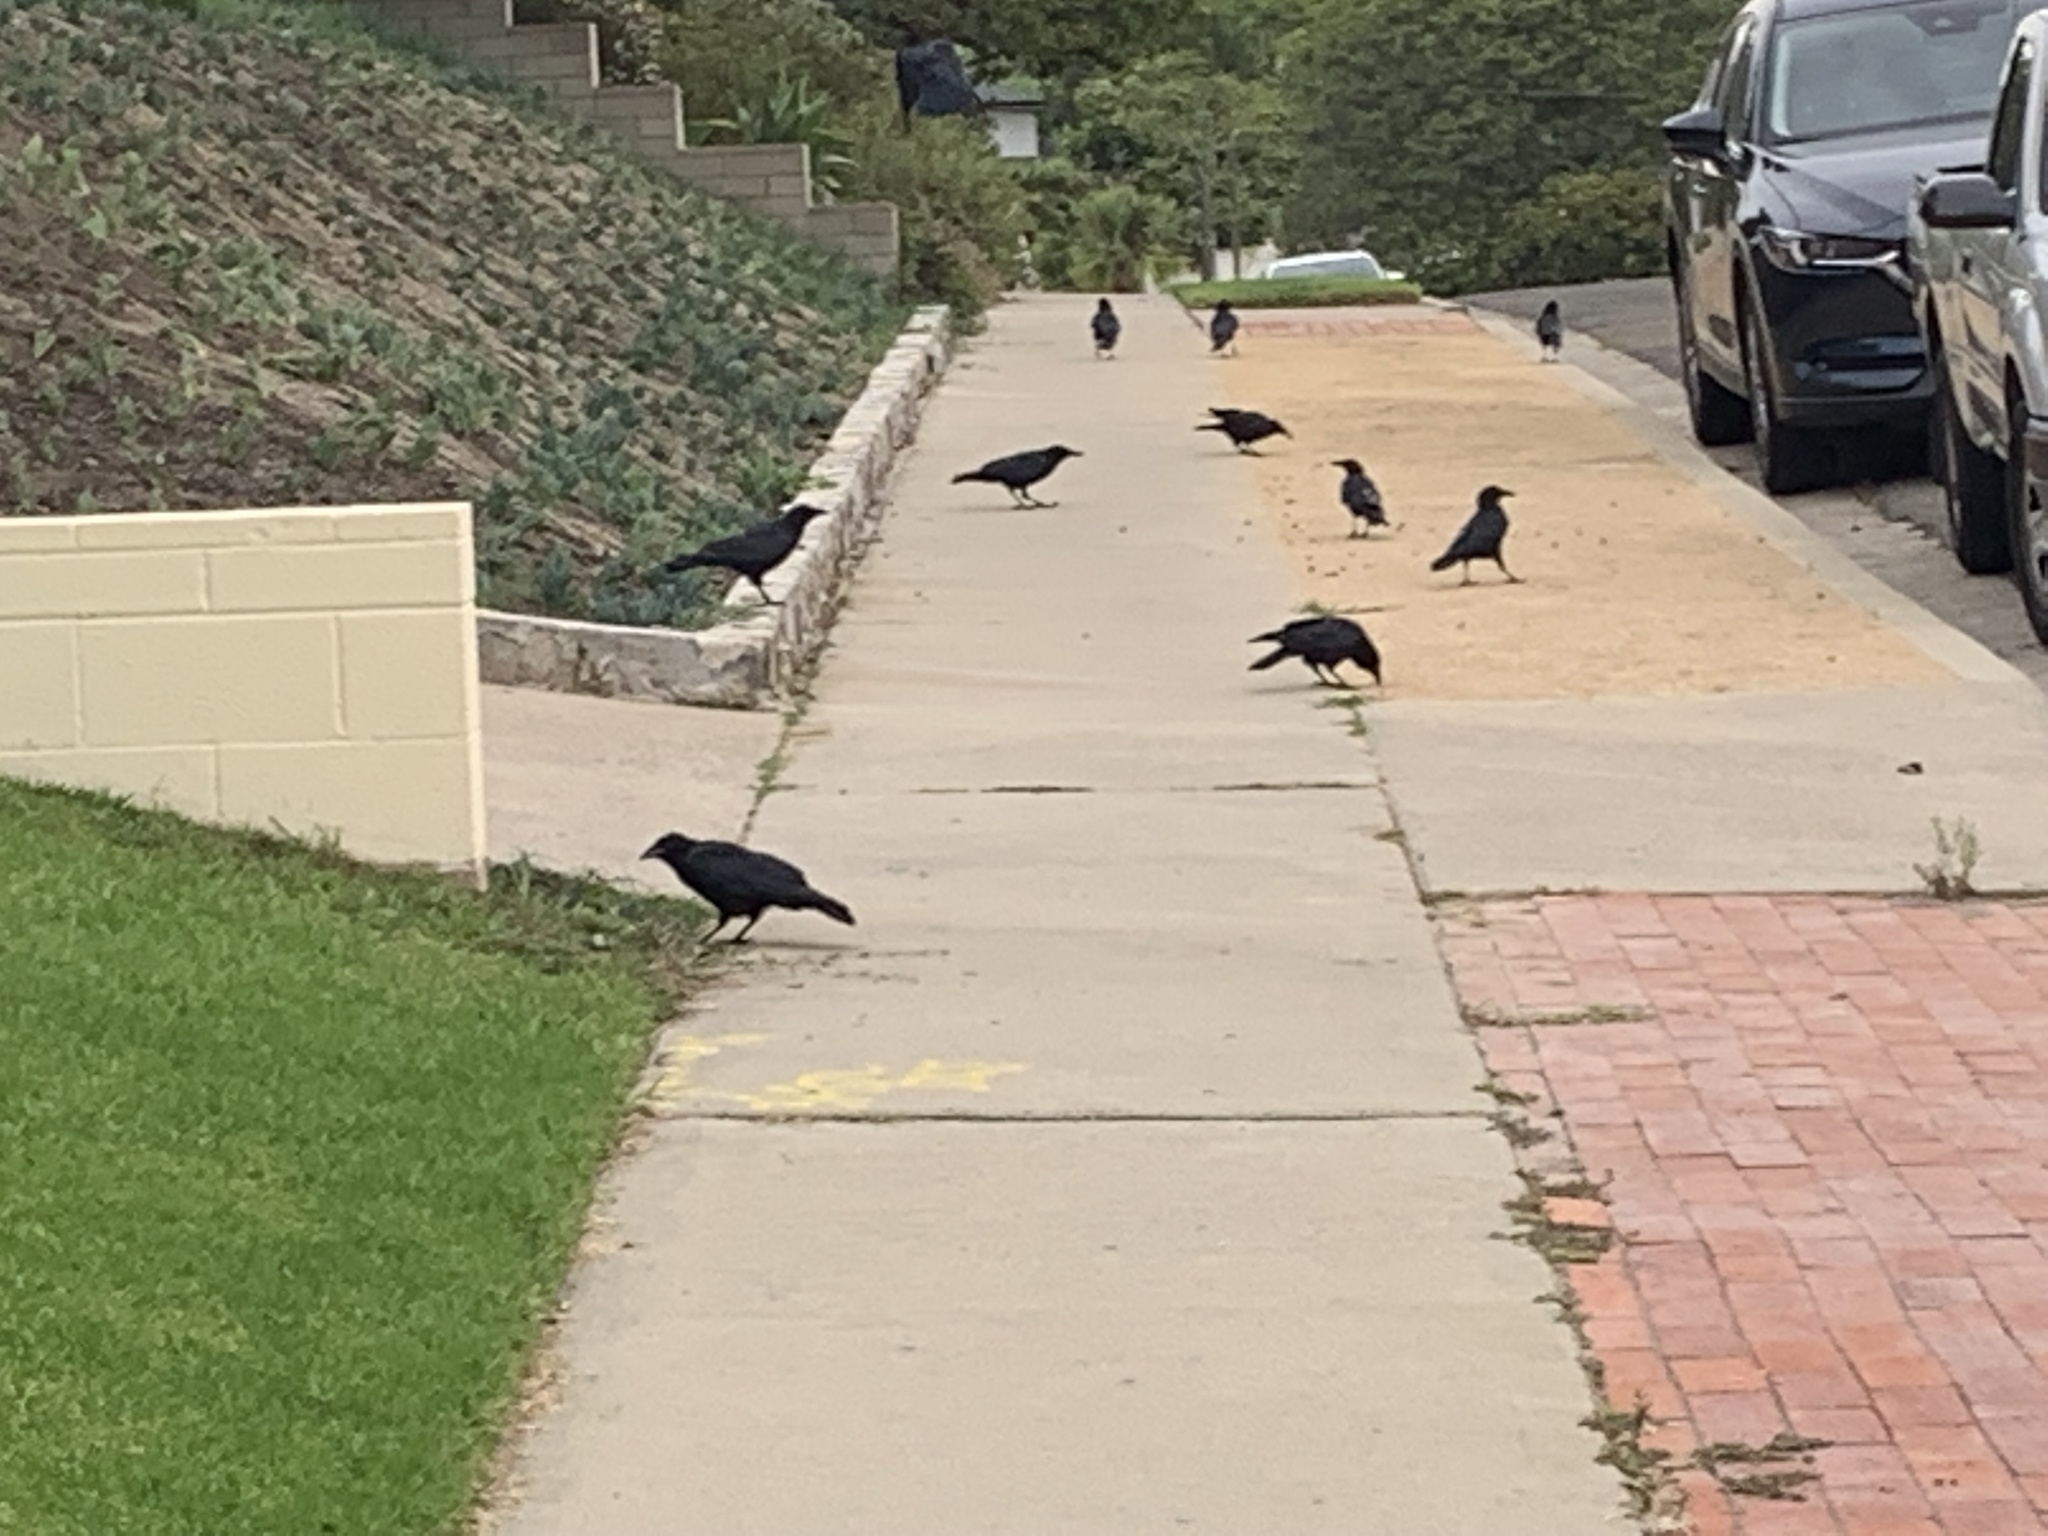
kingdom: Animalia
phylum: Chordata
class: Aves
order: Passeriformes
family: Corvidae
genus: Corvus
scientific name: Corvus brachyrhynchos
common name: American crow
